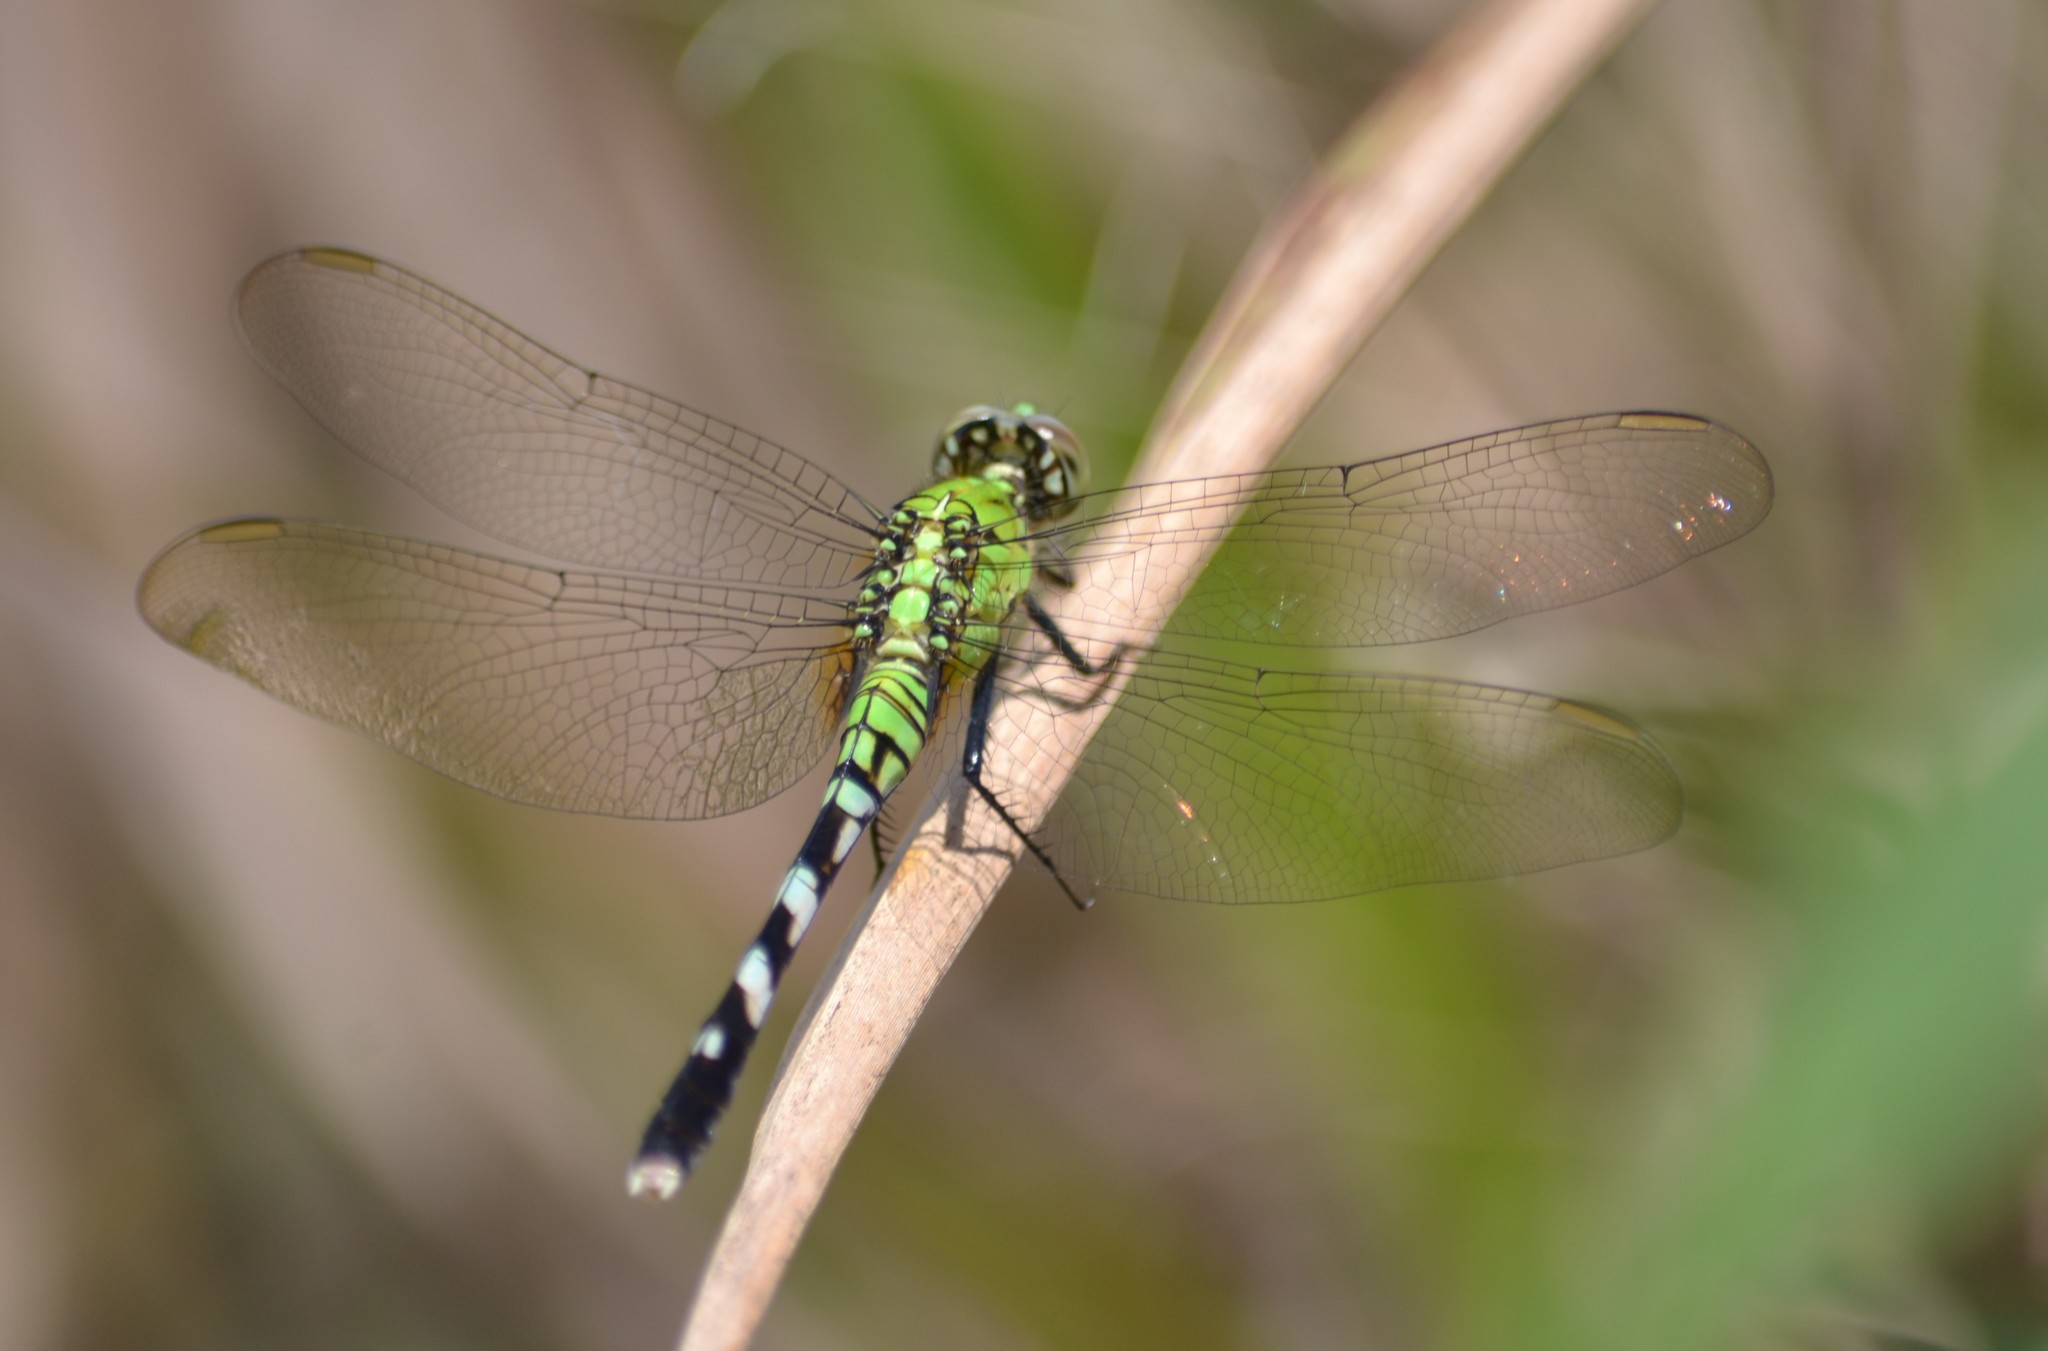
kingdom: Animalia
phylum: Arthropoda
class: Insecta
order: Odonata
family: Libellulidae
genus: Erythemis
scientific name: Erythemis simplicicollis
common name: Eastern pondhawk
